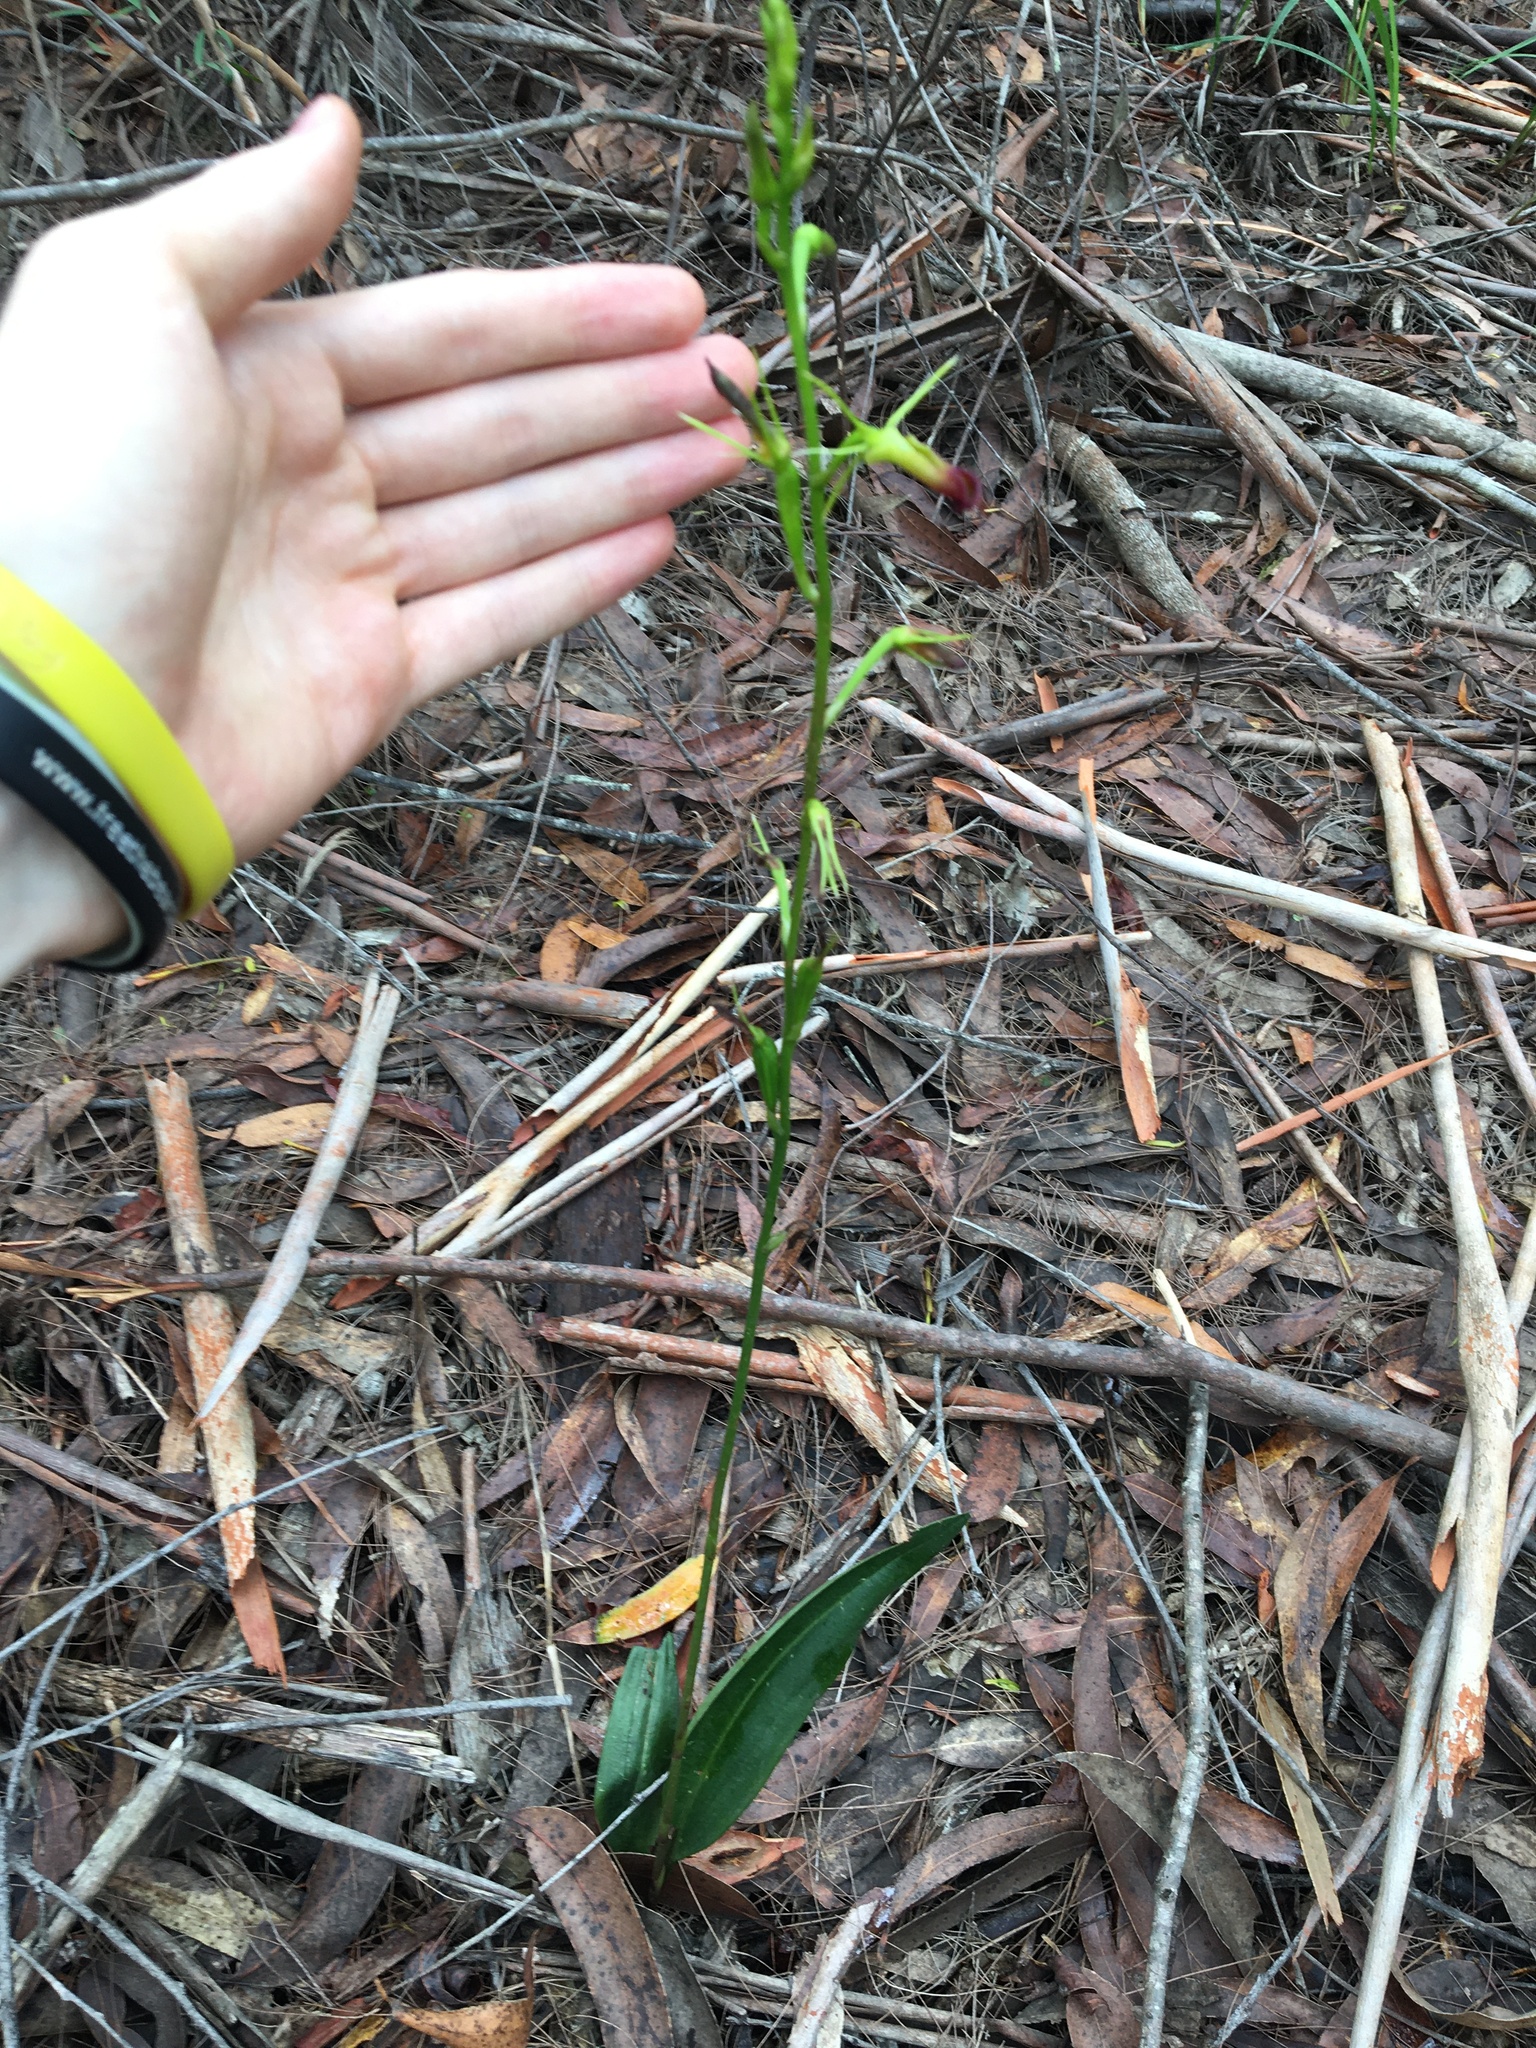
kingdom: Plantae
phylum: Tracheophyta
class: Liliopsida
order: Asparagales
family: Orchidaceae
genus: Cryptostylis
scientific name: Cryptostylis subulata
